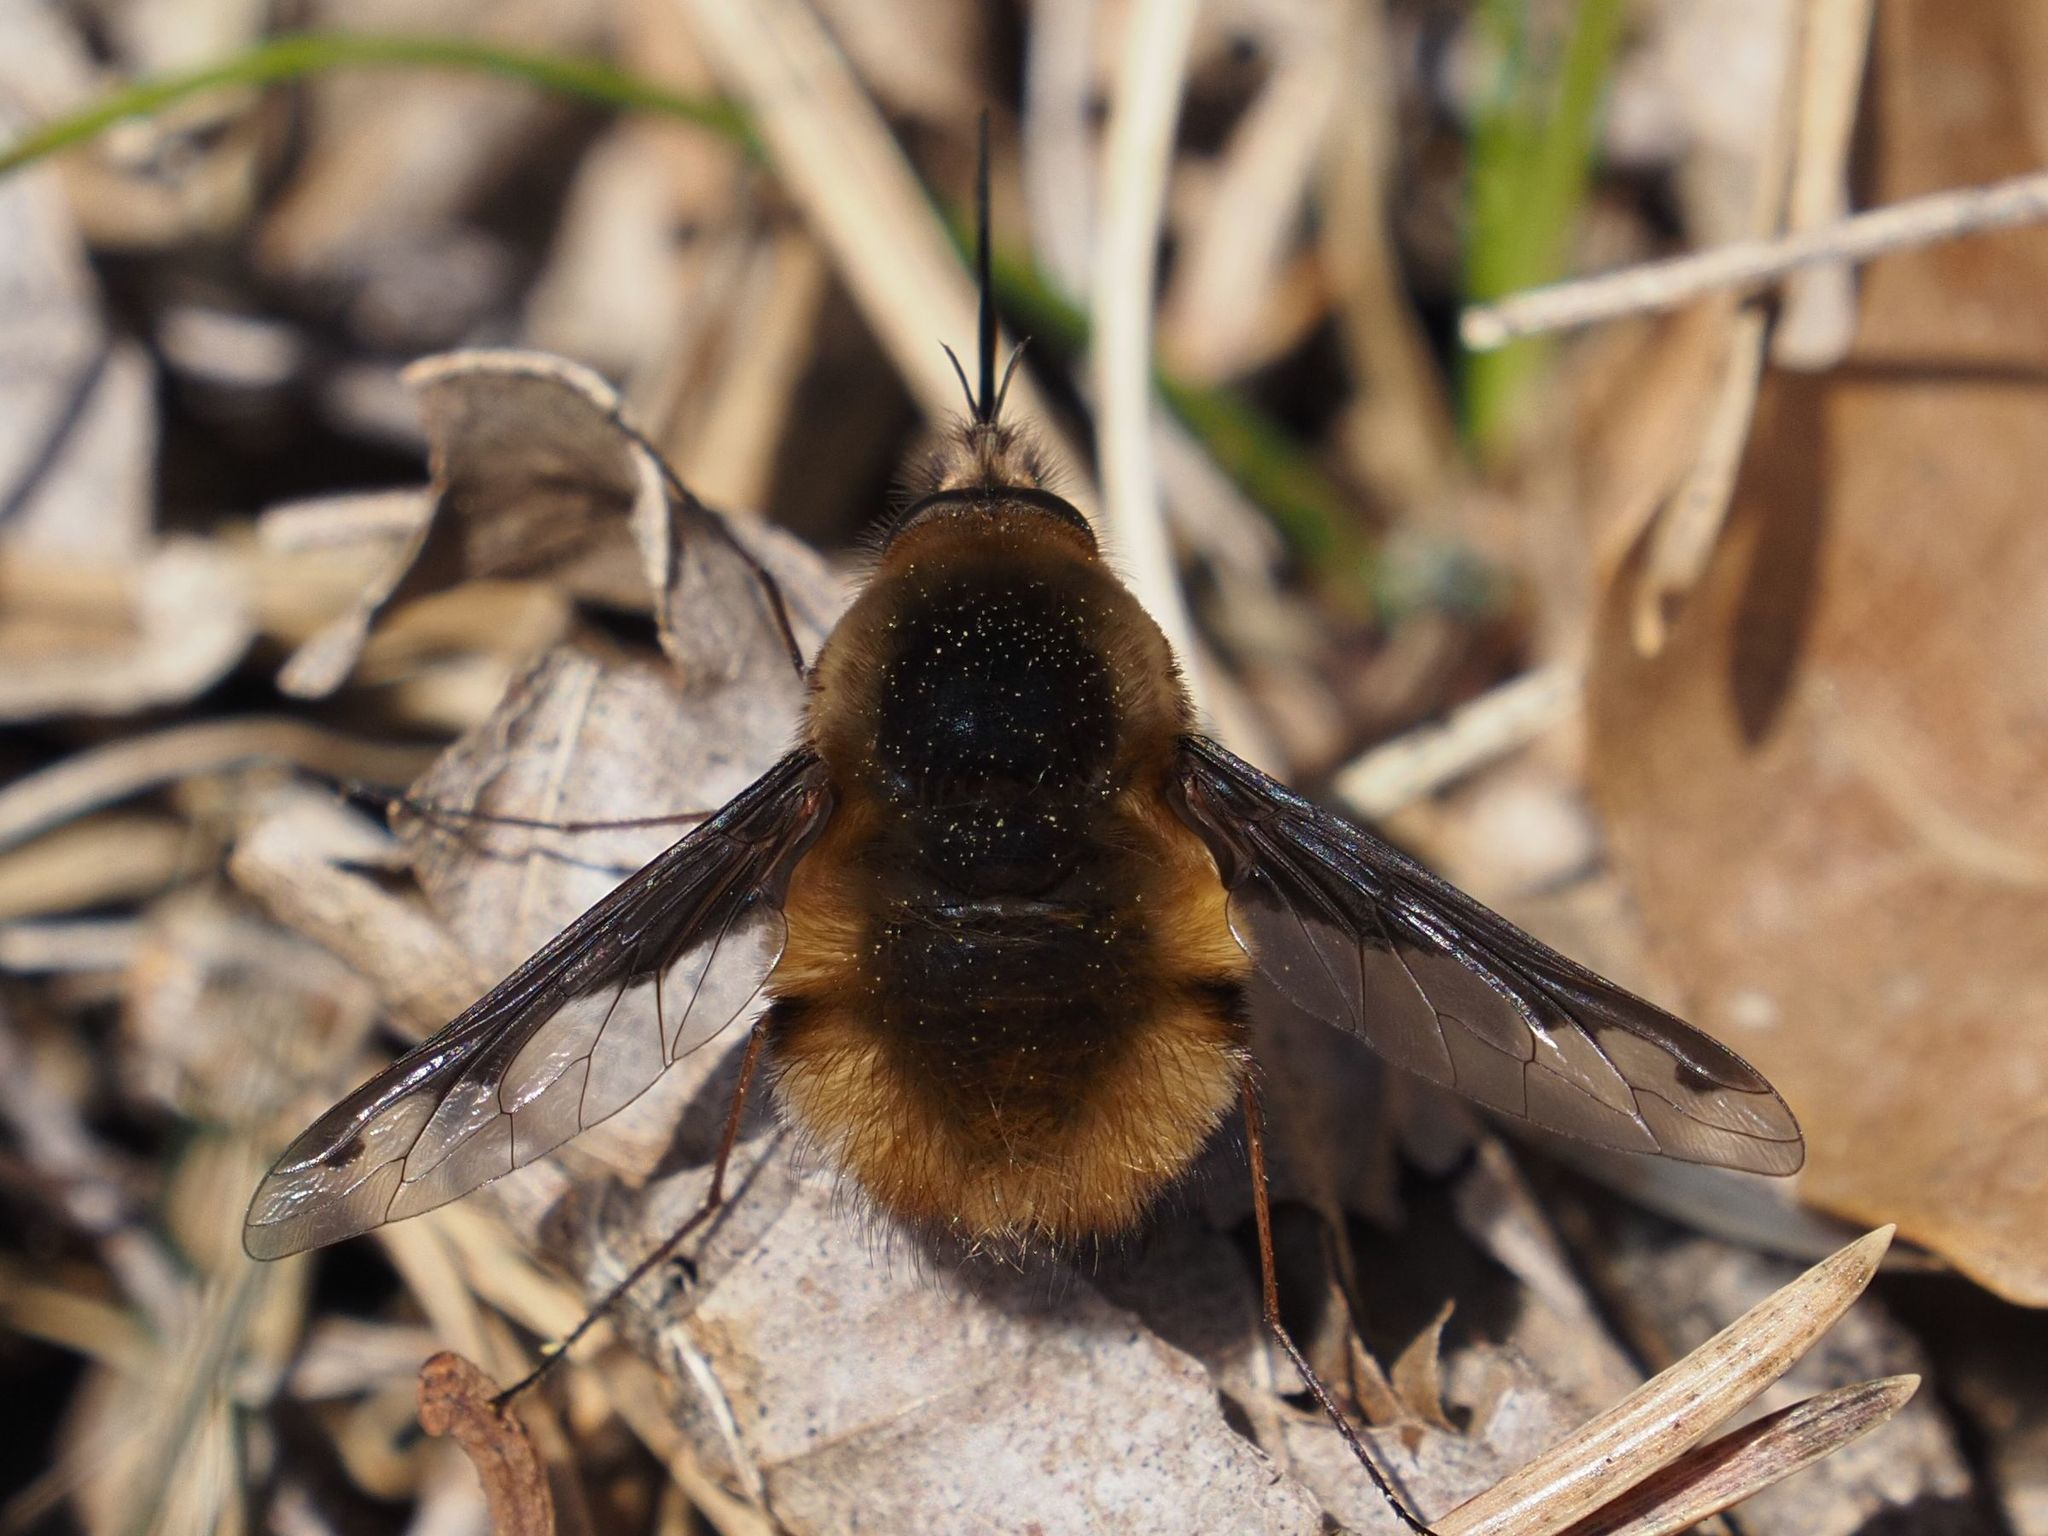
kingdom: Animalia
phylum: Arthropoda
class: Insecta
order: Diptera
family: Bombyliidae
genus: Bombylius
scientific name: Bombylius major
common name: Bee fly
